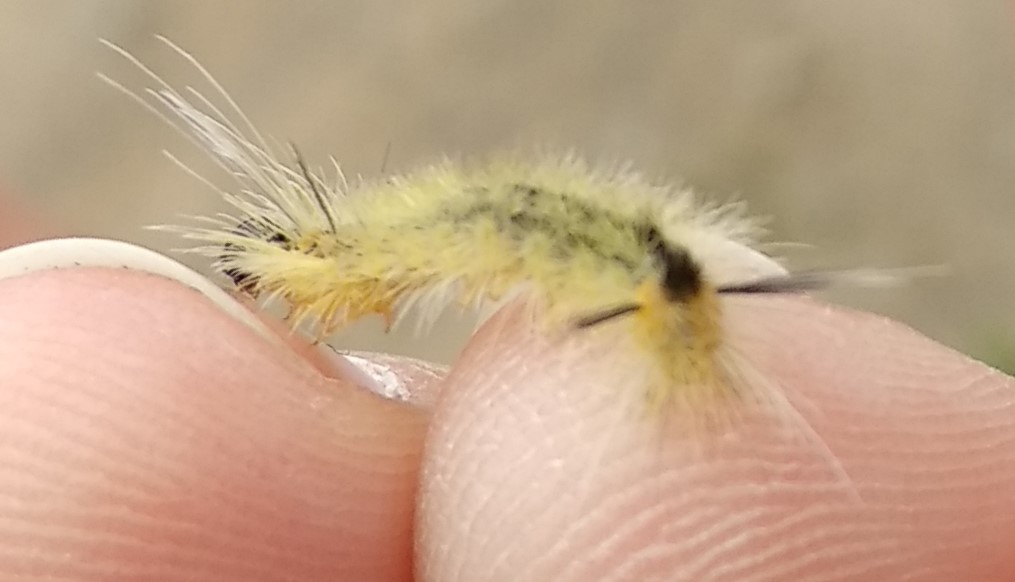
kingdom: Animalia
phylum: Arthropoda
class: Insecta
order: Lepidoptera
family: Erebidae
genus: Halysidota
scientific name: Halysidota tessellaris
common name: Banded tussock moth
